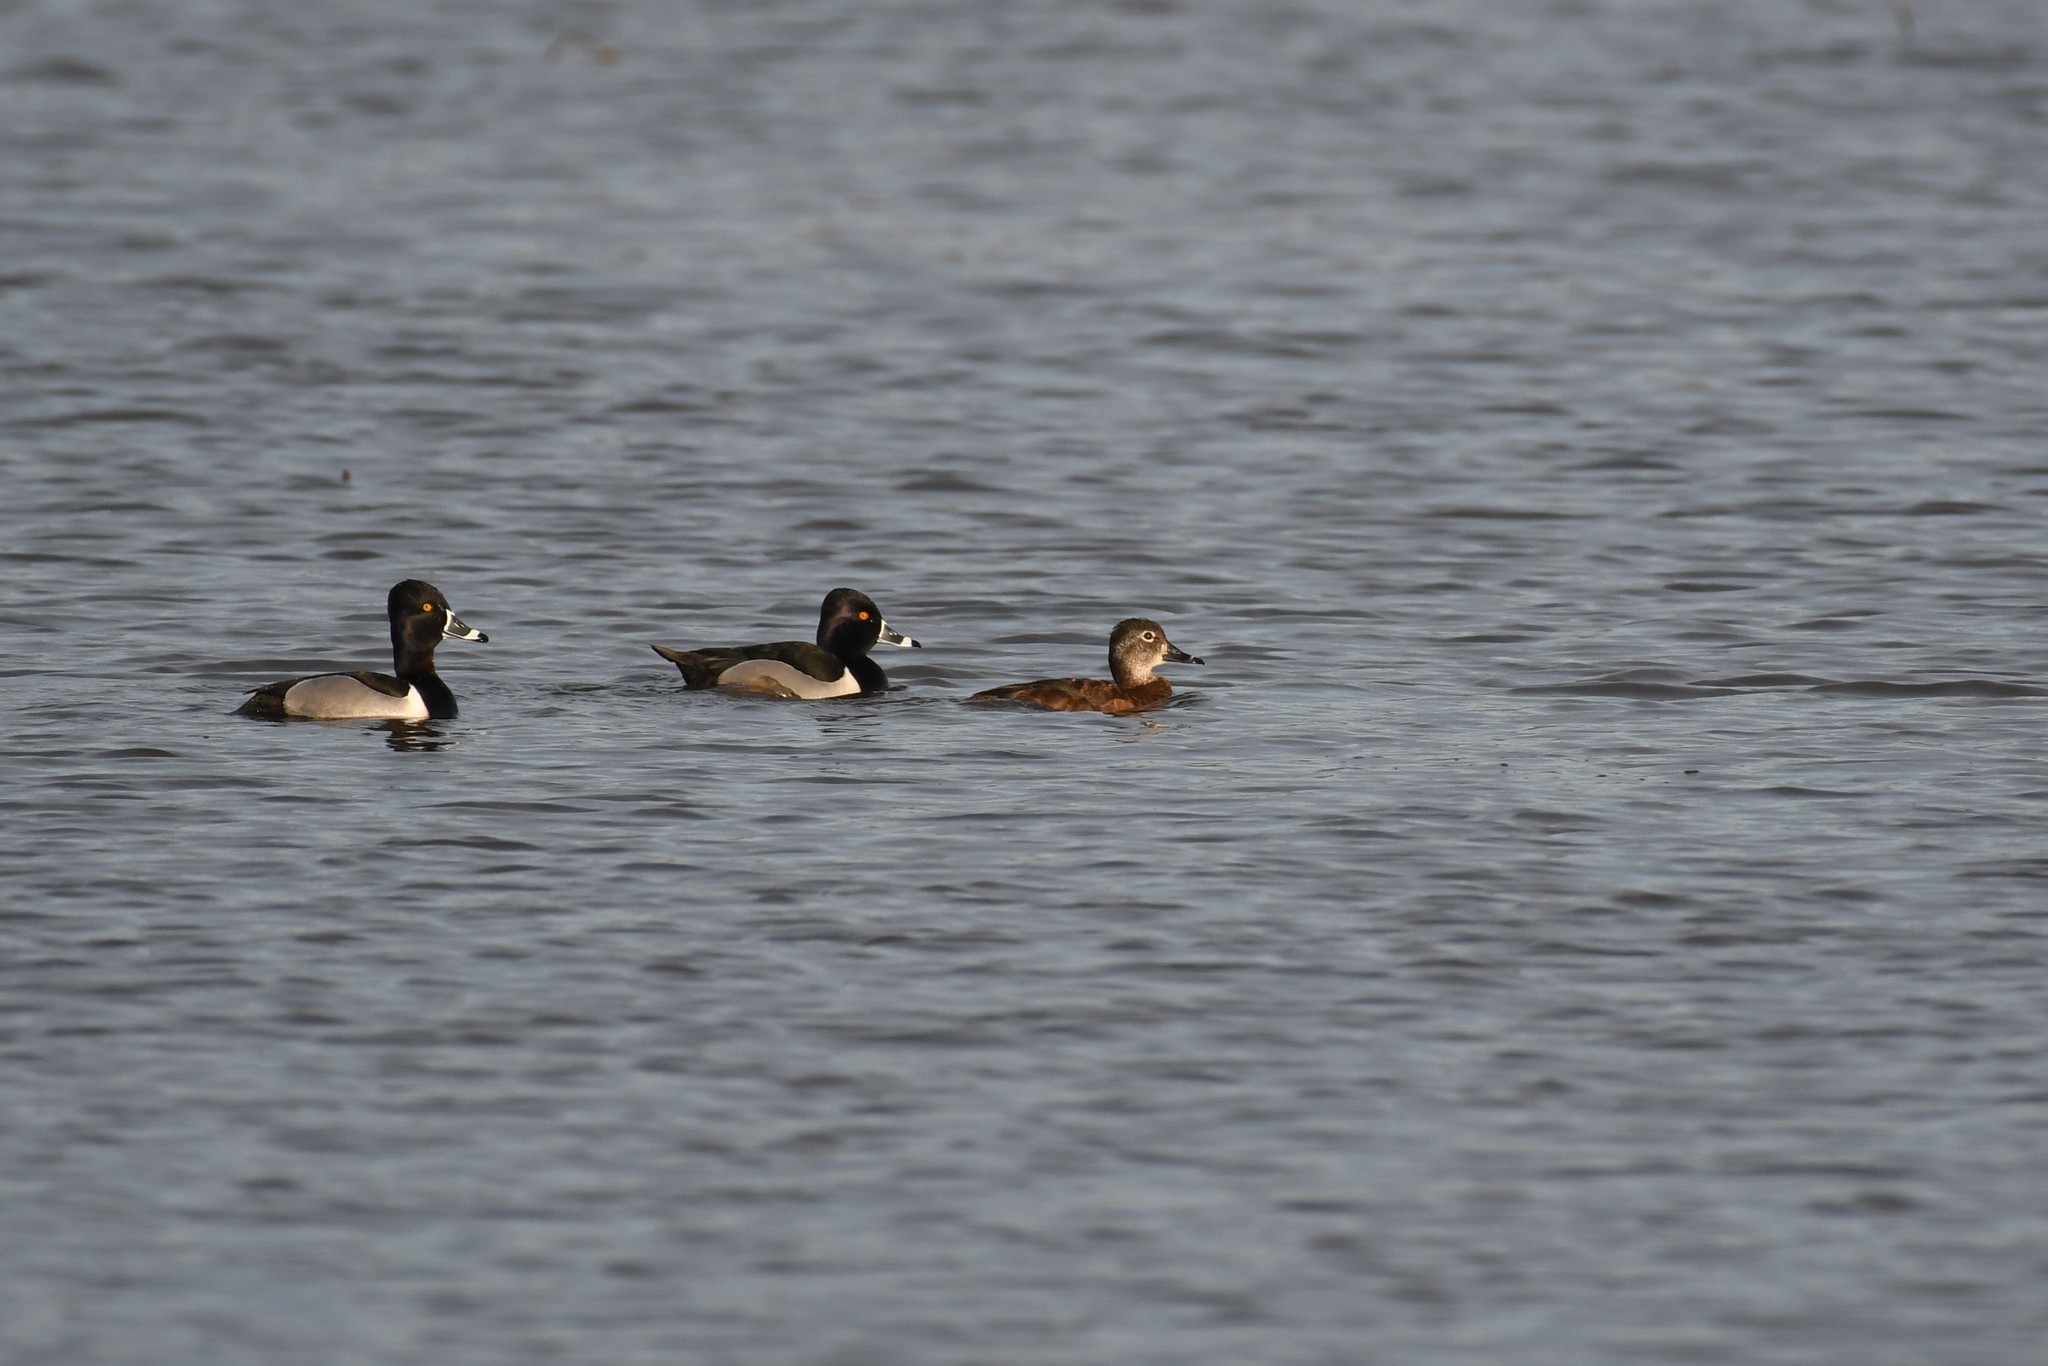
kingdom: Animalia
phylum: Chordata
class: Aves
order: Anseriformes
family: Anatidae
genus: Aythya
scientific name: Aythya collaris
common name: Ring-necked duck
